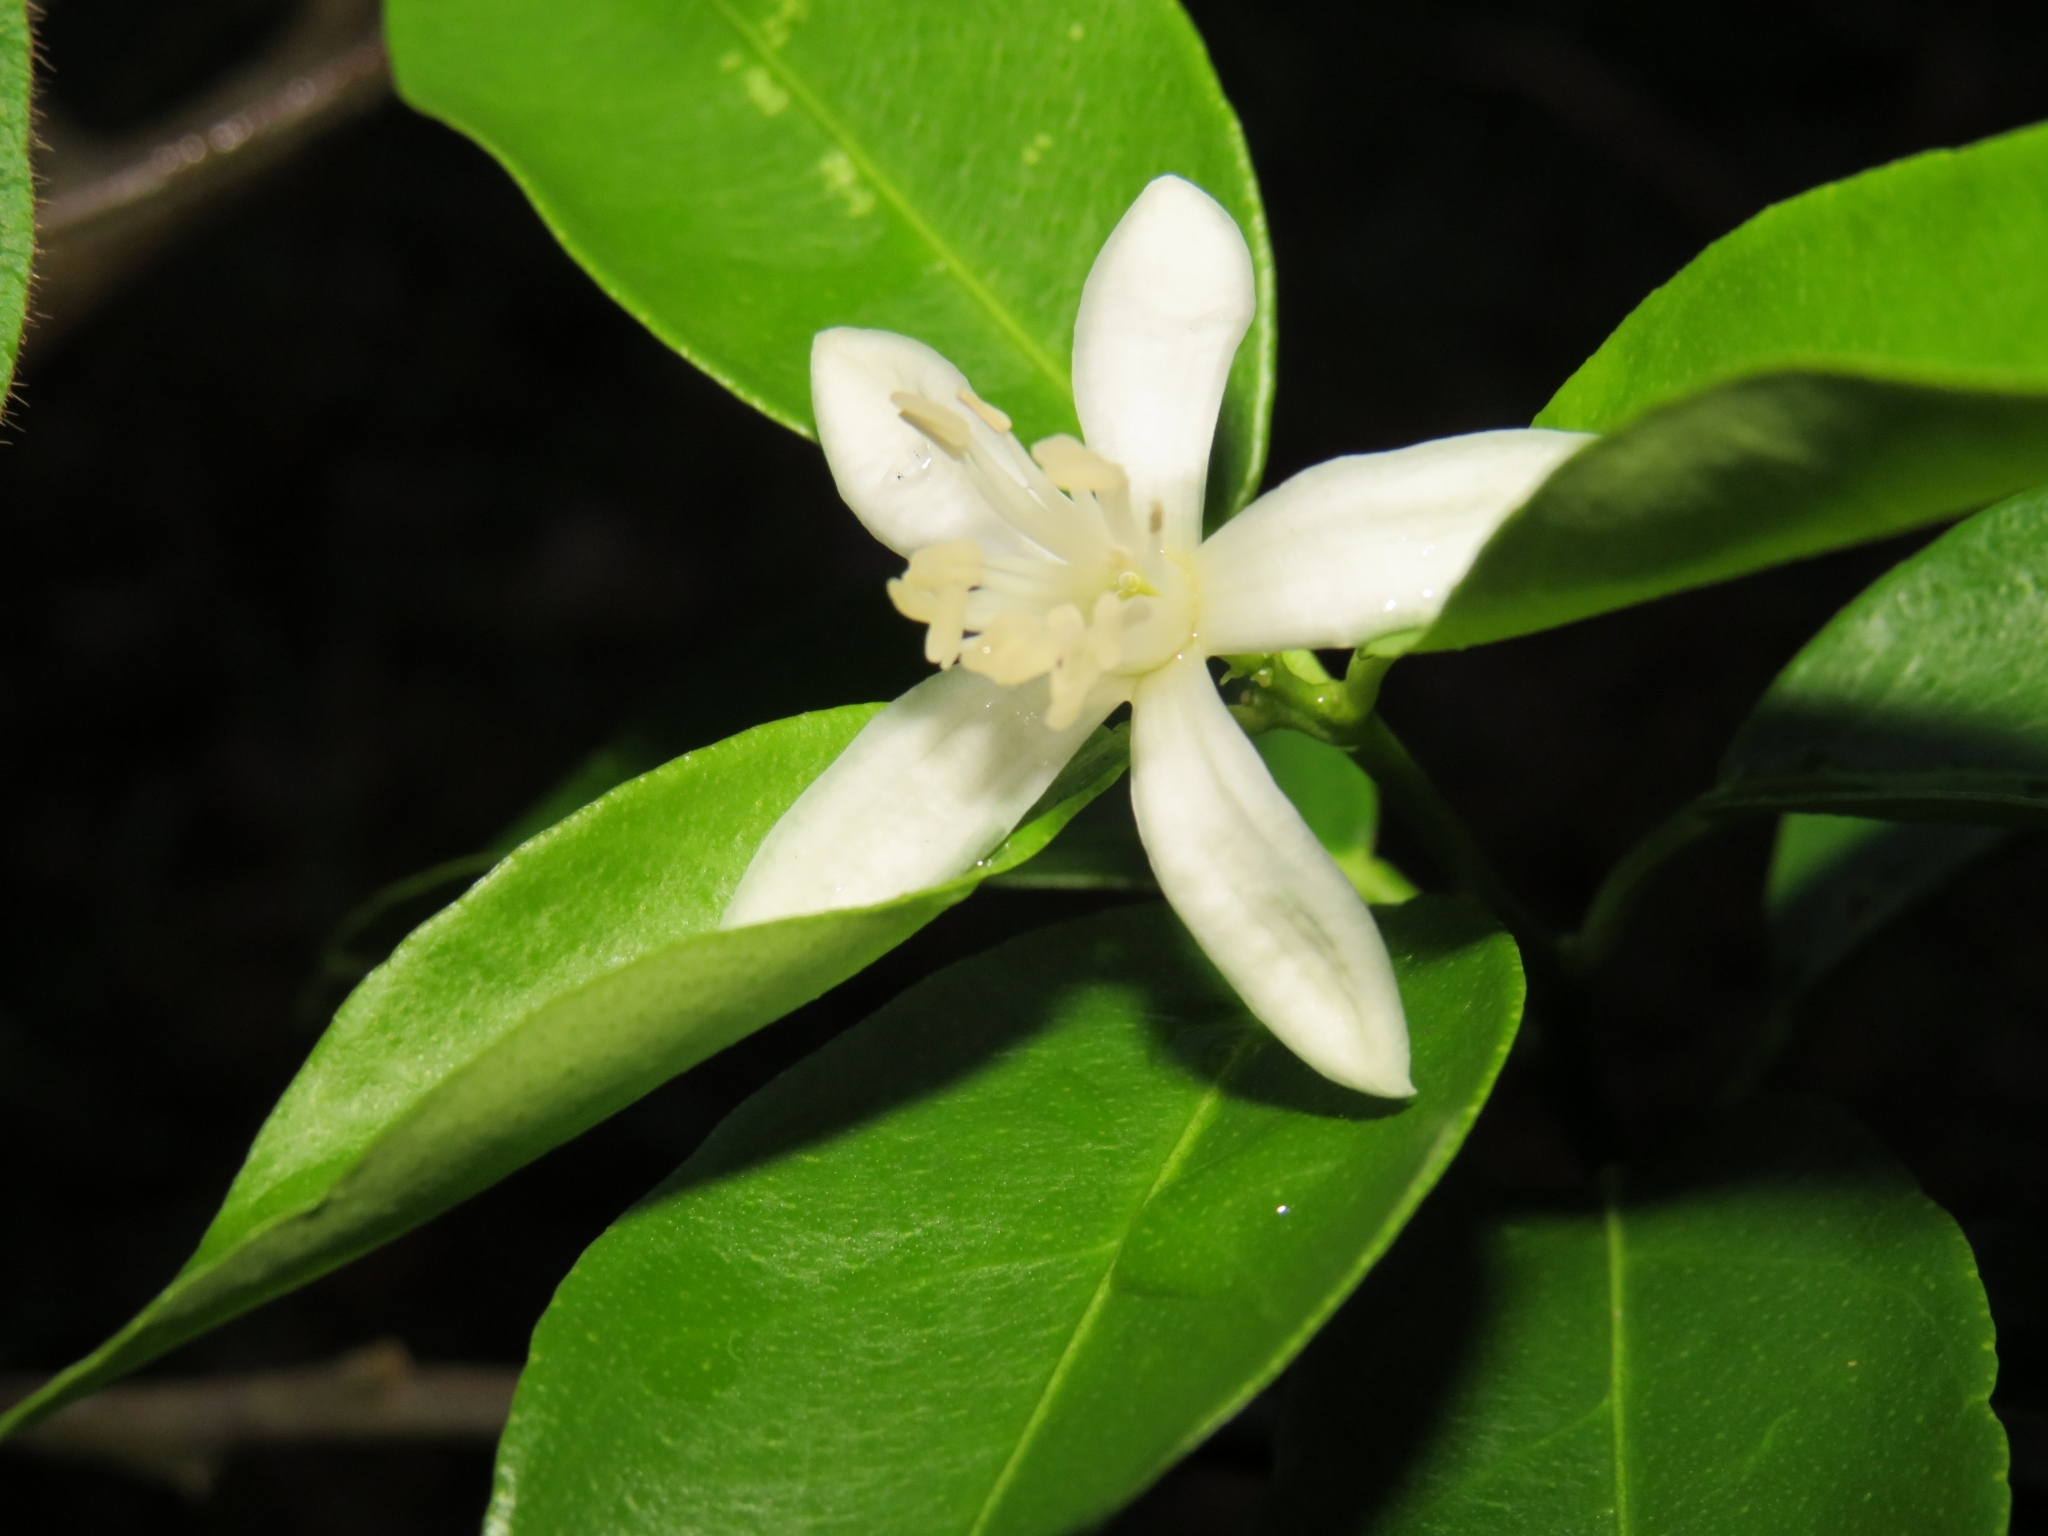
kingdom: Plantae
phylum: Tracheophyta
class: Magnoliopsida
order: Sapindales
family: Rutaceae
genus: Murraya
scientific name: Murraya paniculata
